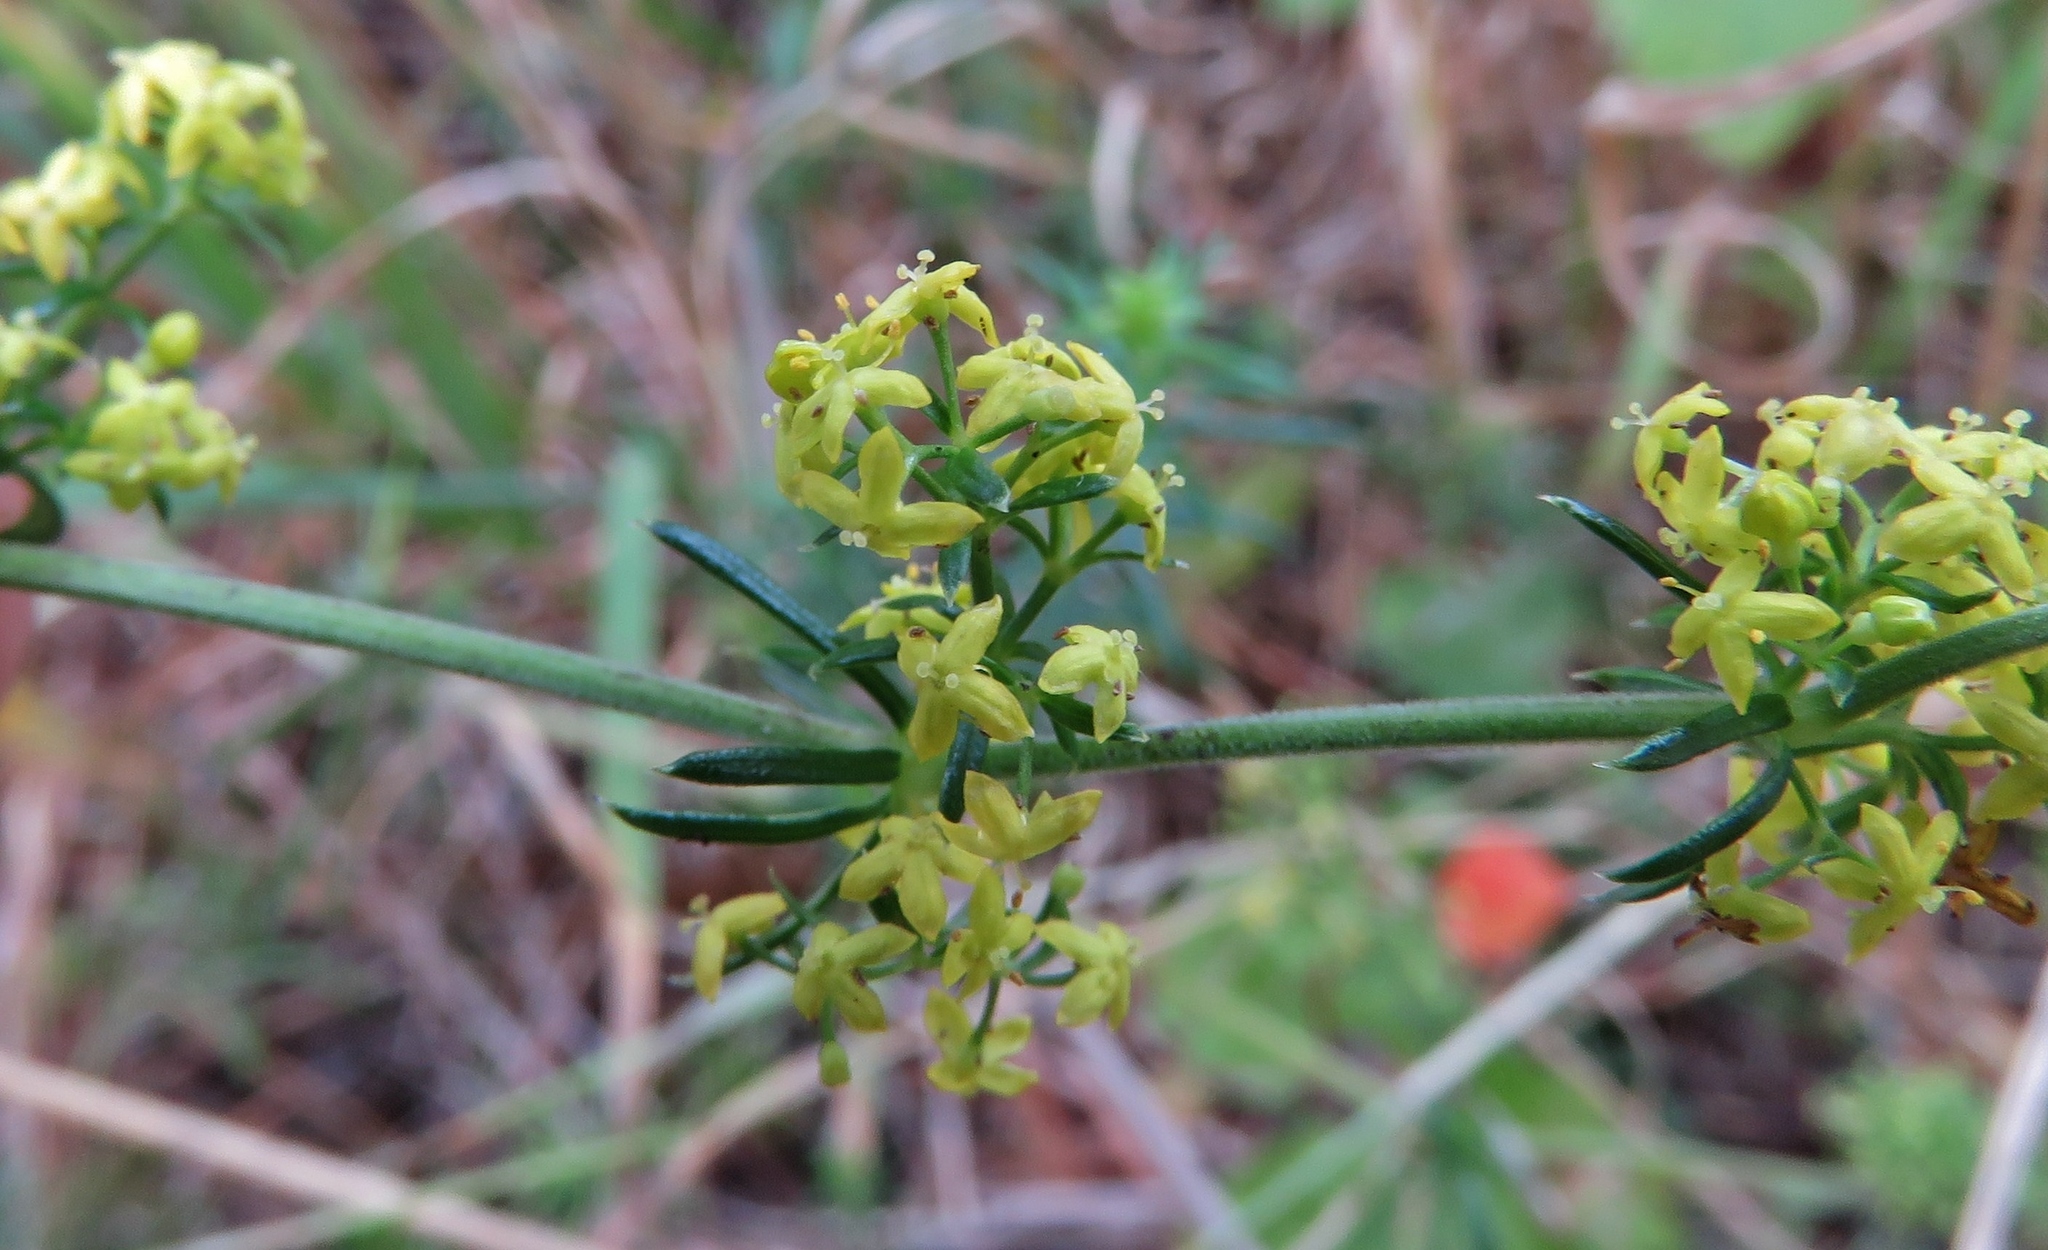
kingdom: Plantae
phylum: Tracheophyta
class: Magnoliopsida
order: Gentianales
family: Rubiaceae
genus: Galium
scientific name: Galium verum
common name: Lady's bedstraw
